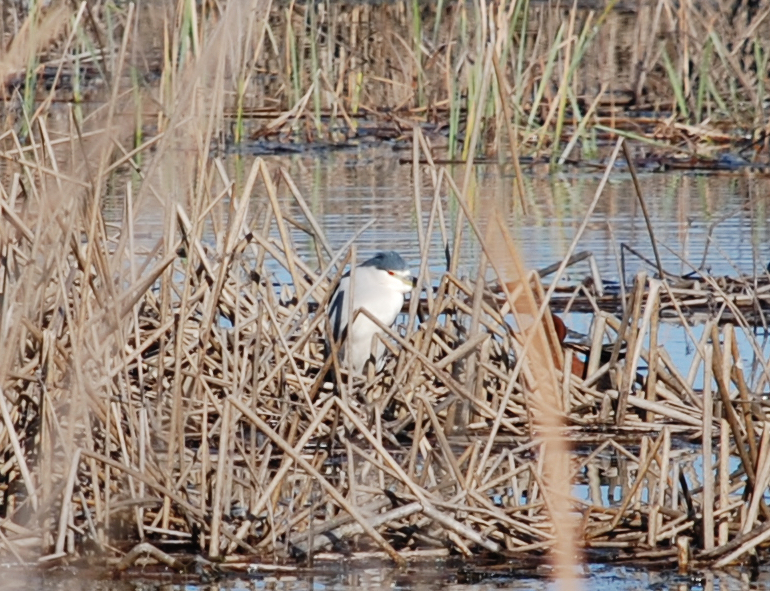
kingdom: Animalia
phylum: Chordata
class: Aves
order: Pelecaniformes
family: Ardeidae
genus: Nycticorax
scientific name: Nycticorax nycticorax
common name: Black-crowned night heron
